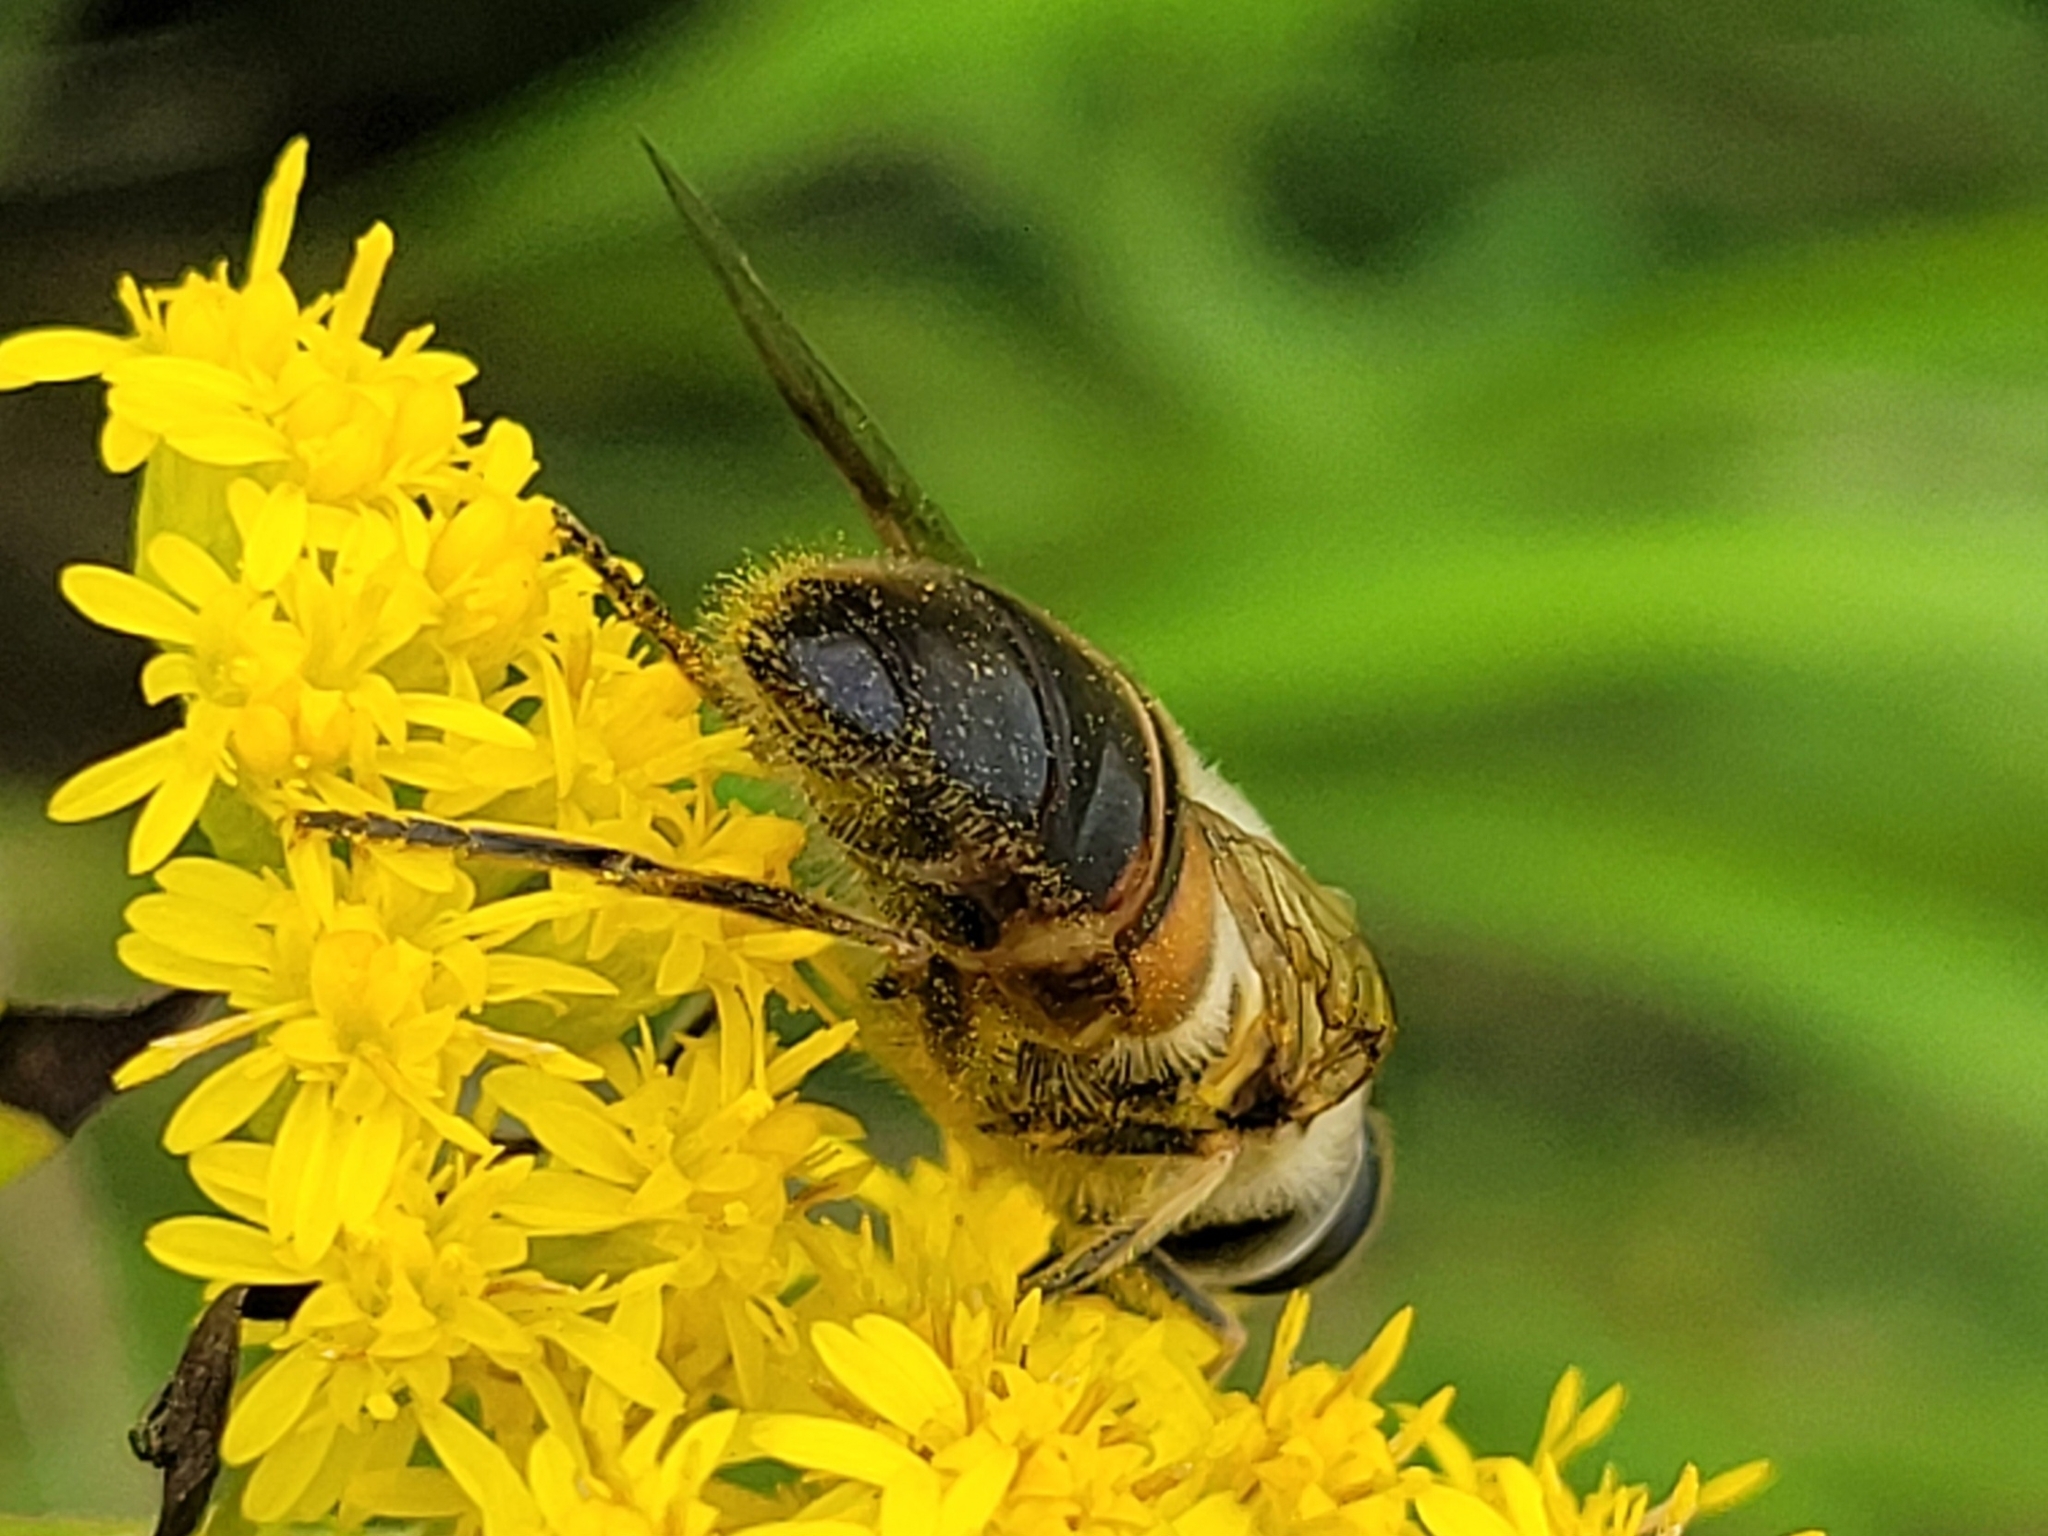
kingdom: Animalia
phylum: Arthropoda
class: Insecta
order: Diptera
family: Syrphidae
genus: Eristalis
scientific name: Eristalis tenax
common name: Drone fly
